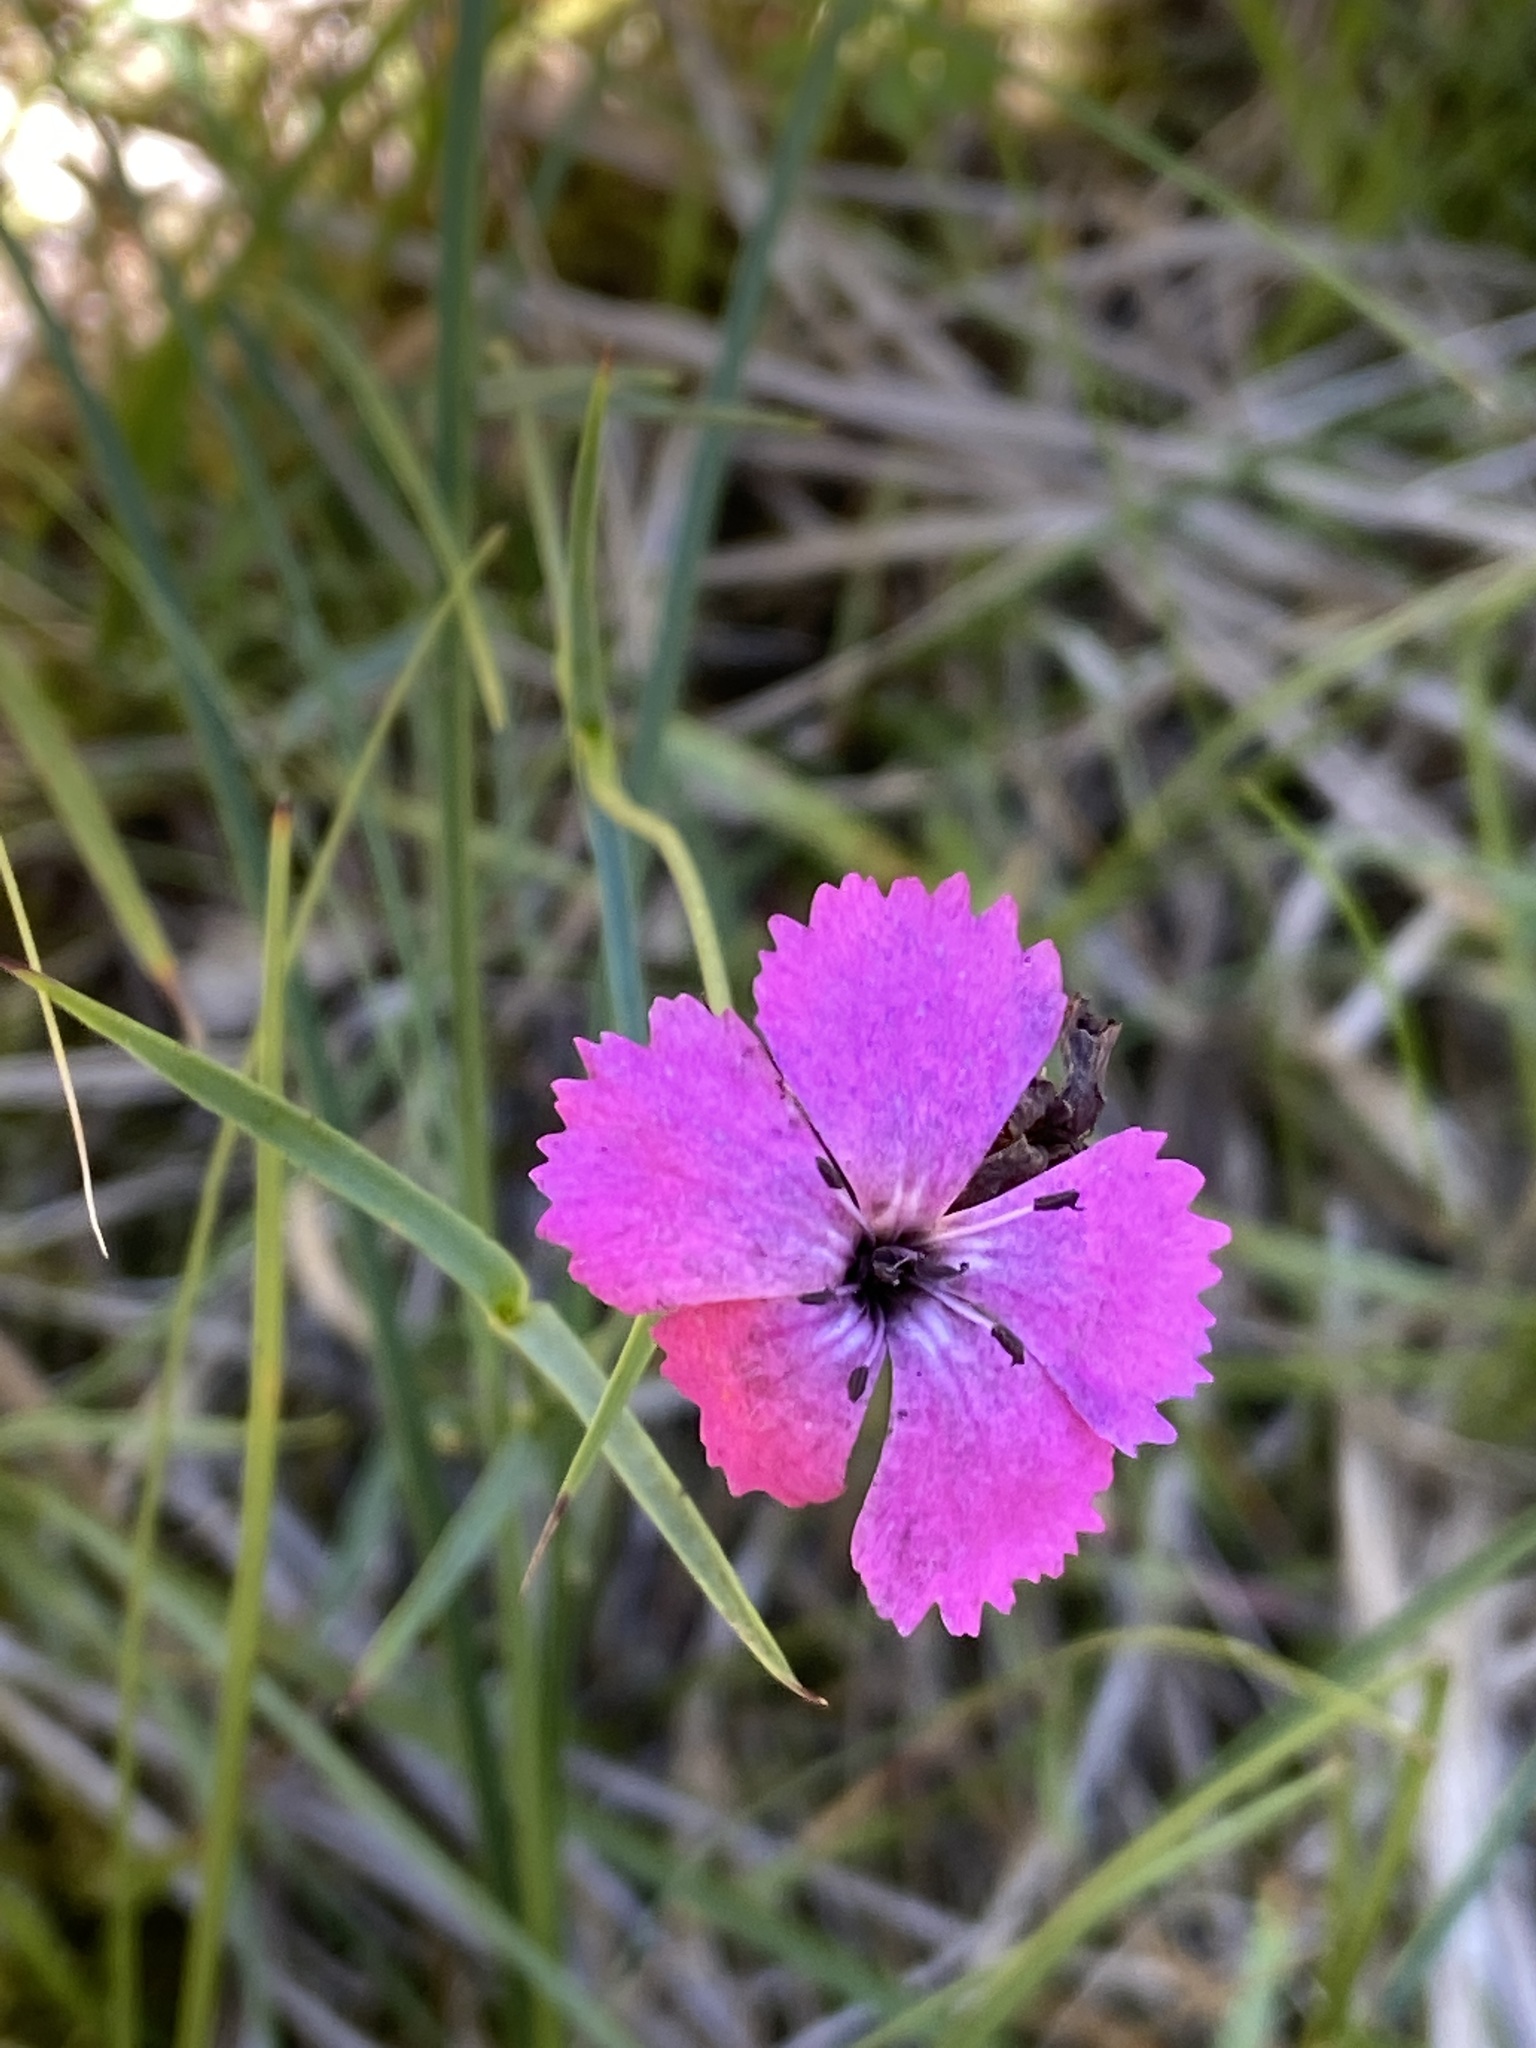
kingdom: Plantae
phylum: Tracheophyta
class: Magnoliopsida
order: Caryophyllales
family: Caryophyllaceae
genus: Dianthus
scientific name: Dianthus carthusianorum
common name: Carthusian pink
